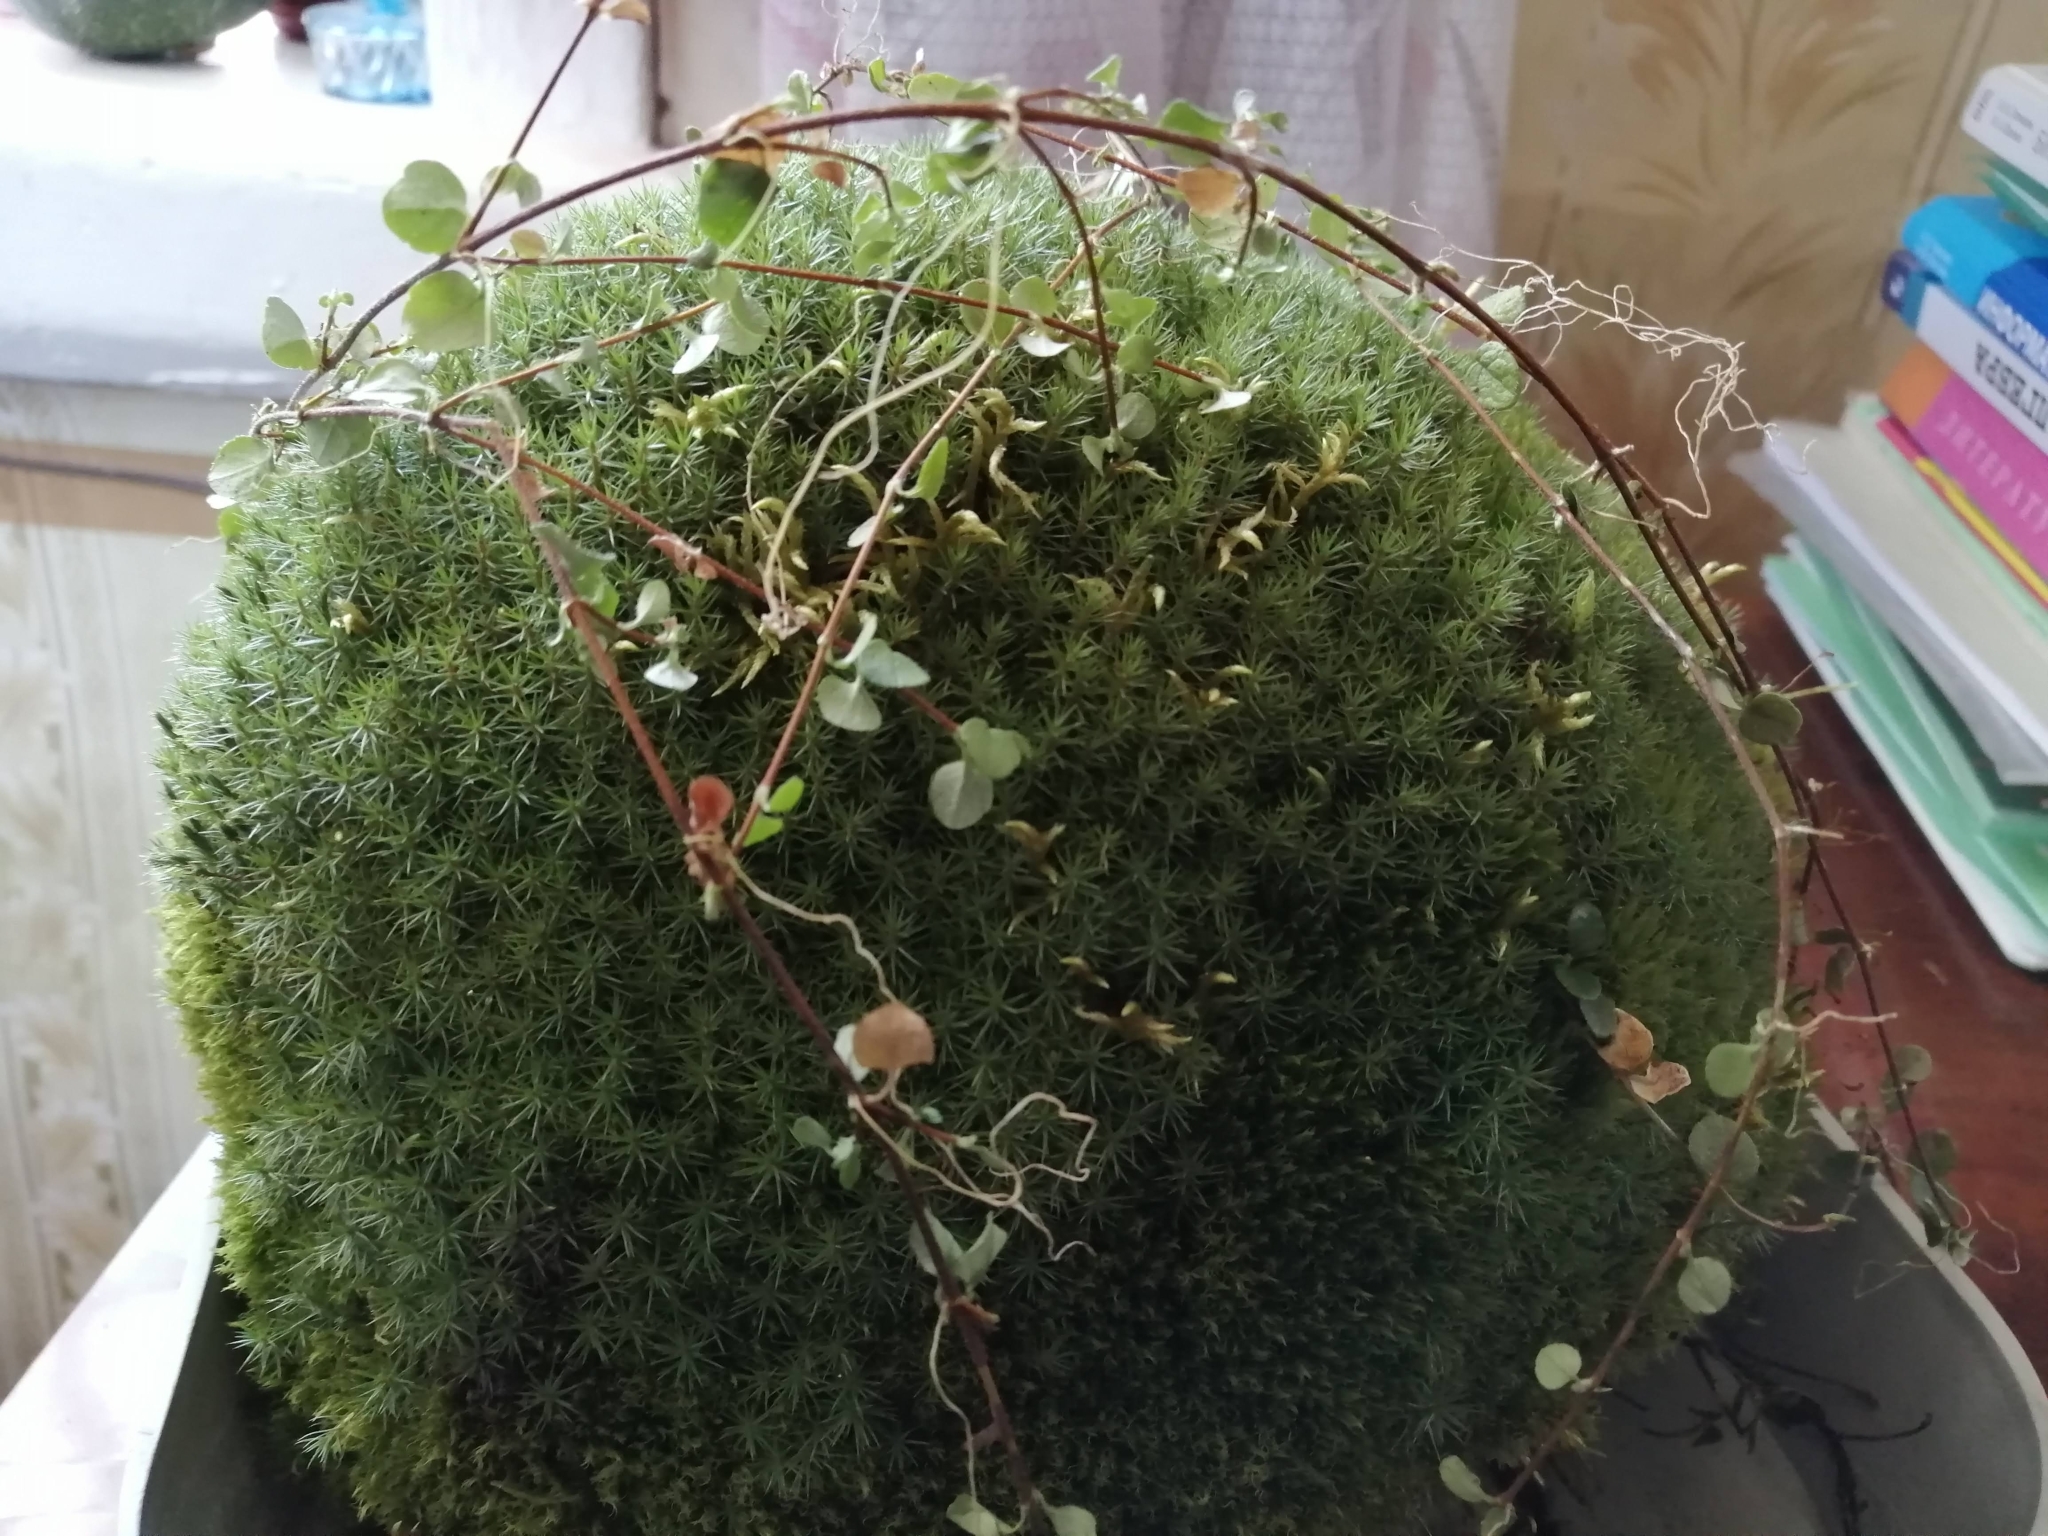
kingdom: Plantae
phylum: Tracheophyta
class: Magnoliopsida
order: Dipsacales
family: Caprifoliaceae
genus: Linnaea
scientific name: Linnaea borealis
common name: Twinflower
